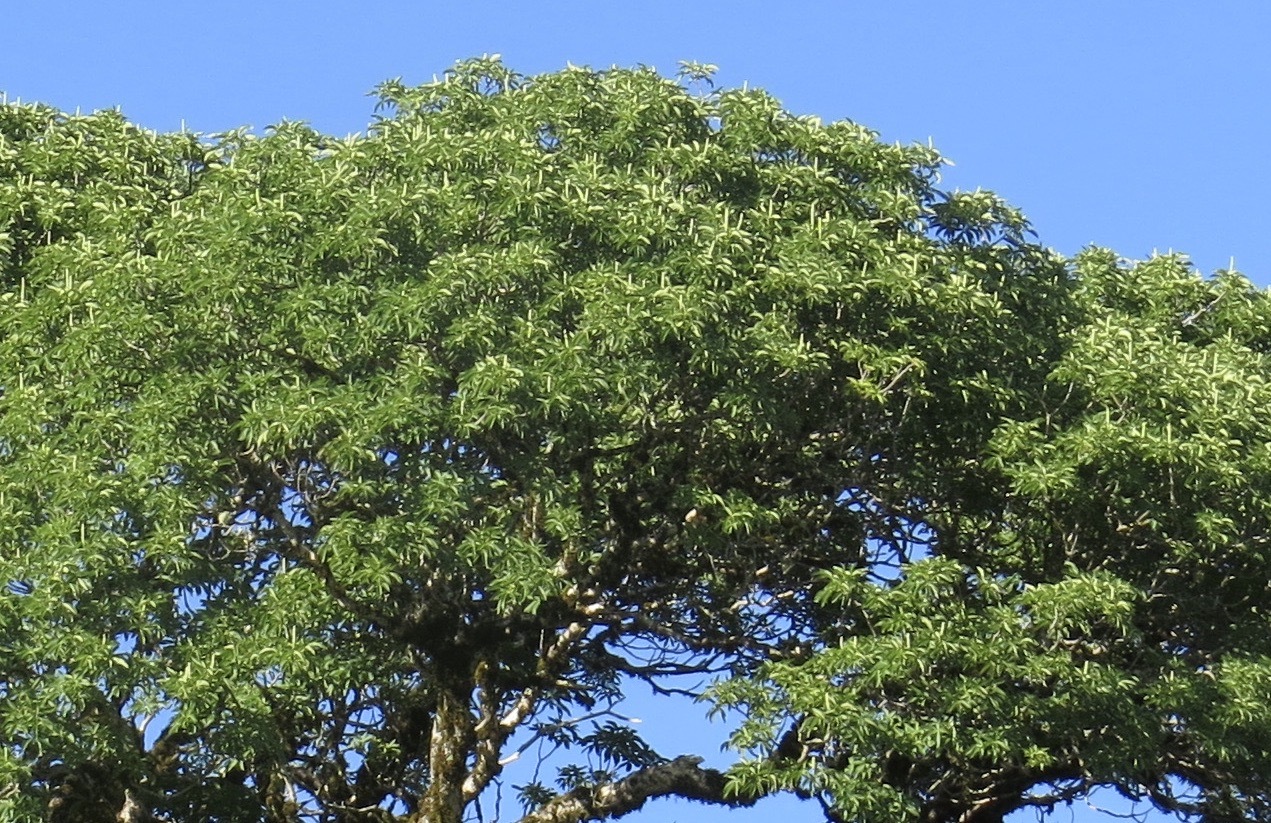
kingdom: Plantae
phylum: Tracheophyta
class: Magnoliopsida
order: Sapindales
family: Sapindaceae
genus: Aesculus
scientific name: Aesculus californica
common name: California buckeye
